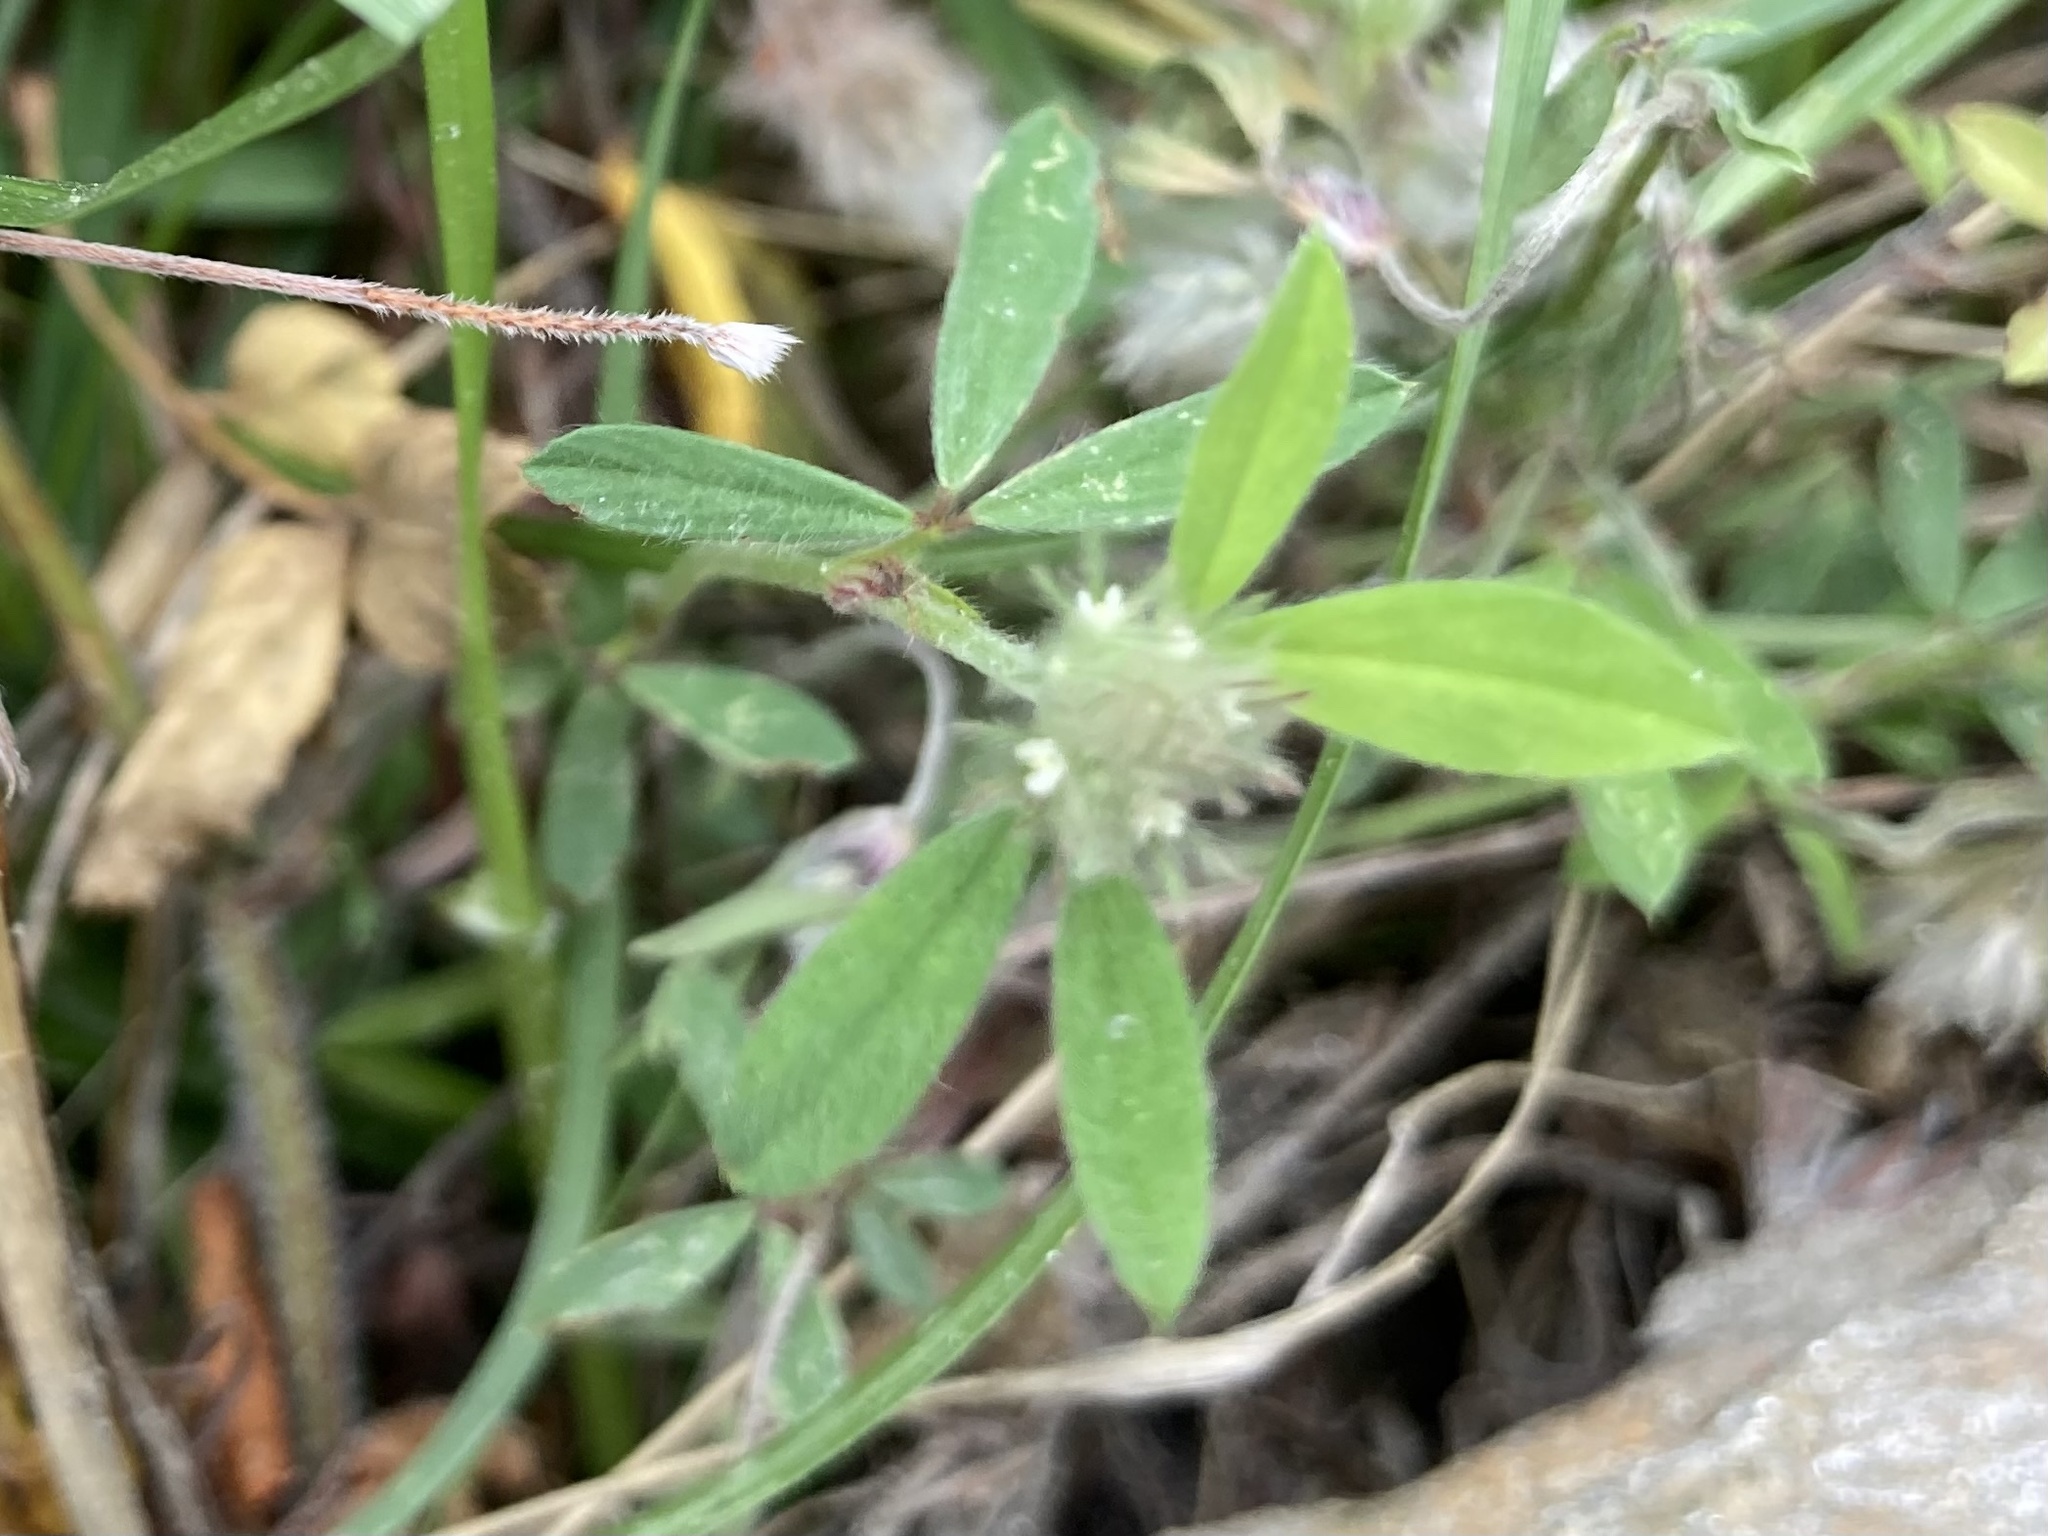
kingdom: Plantae
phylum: Tracheophyta
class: Magnoliopsida
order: Fabales
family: Fabaceae
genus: Trifolium
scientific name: Trifolium arvense
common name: Hare's-foot clover
